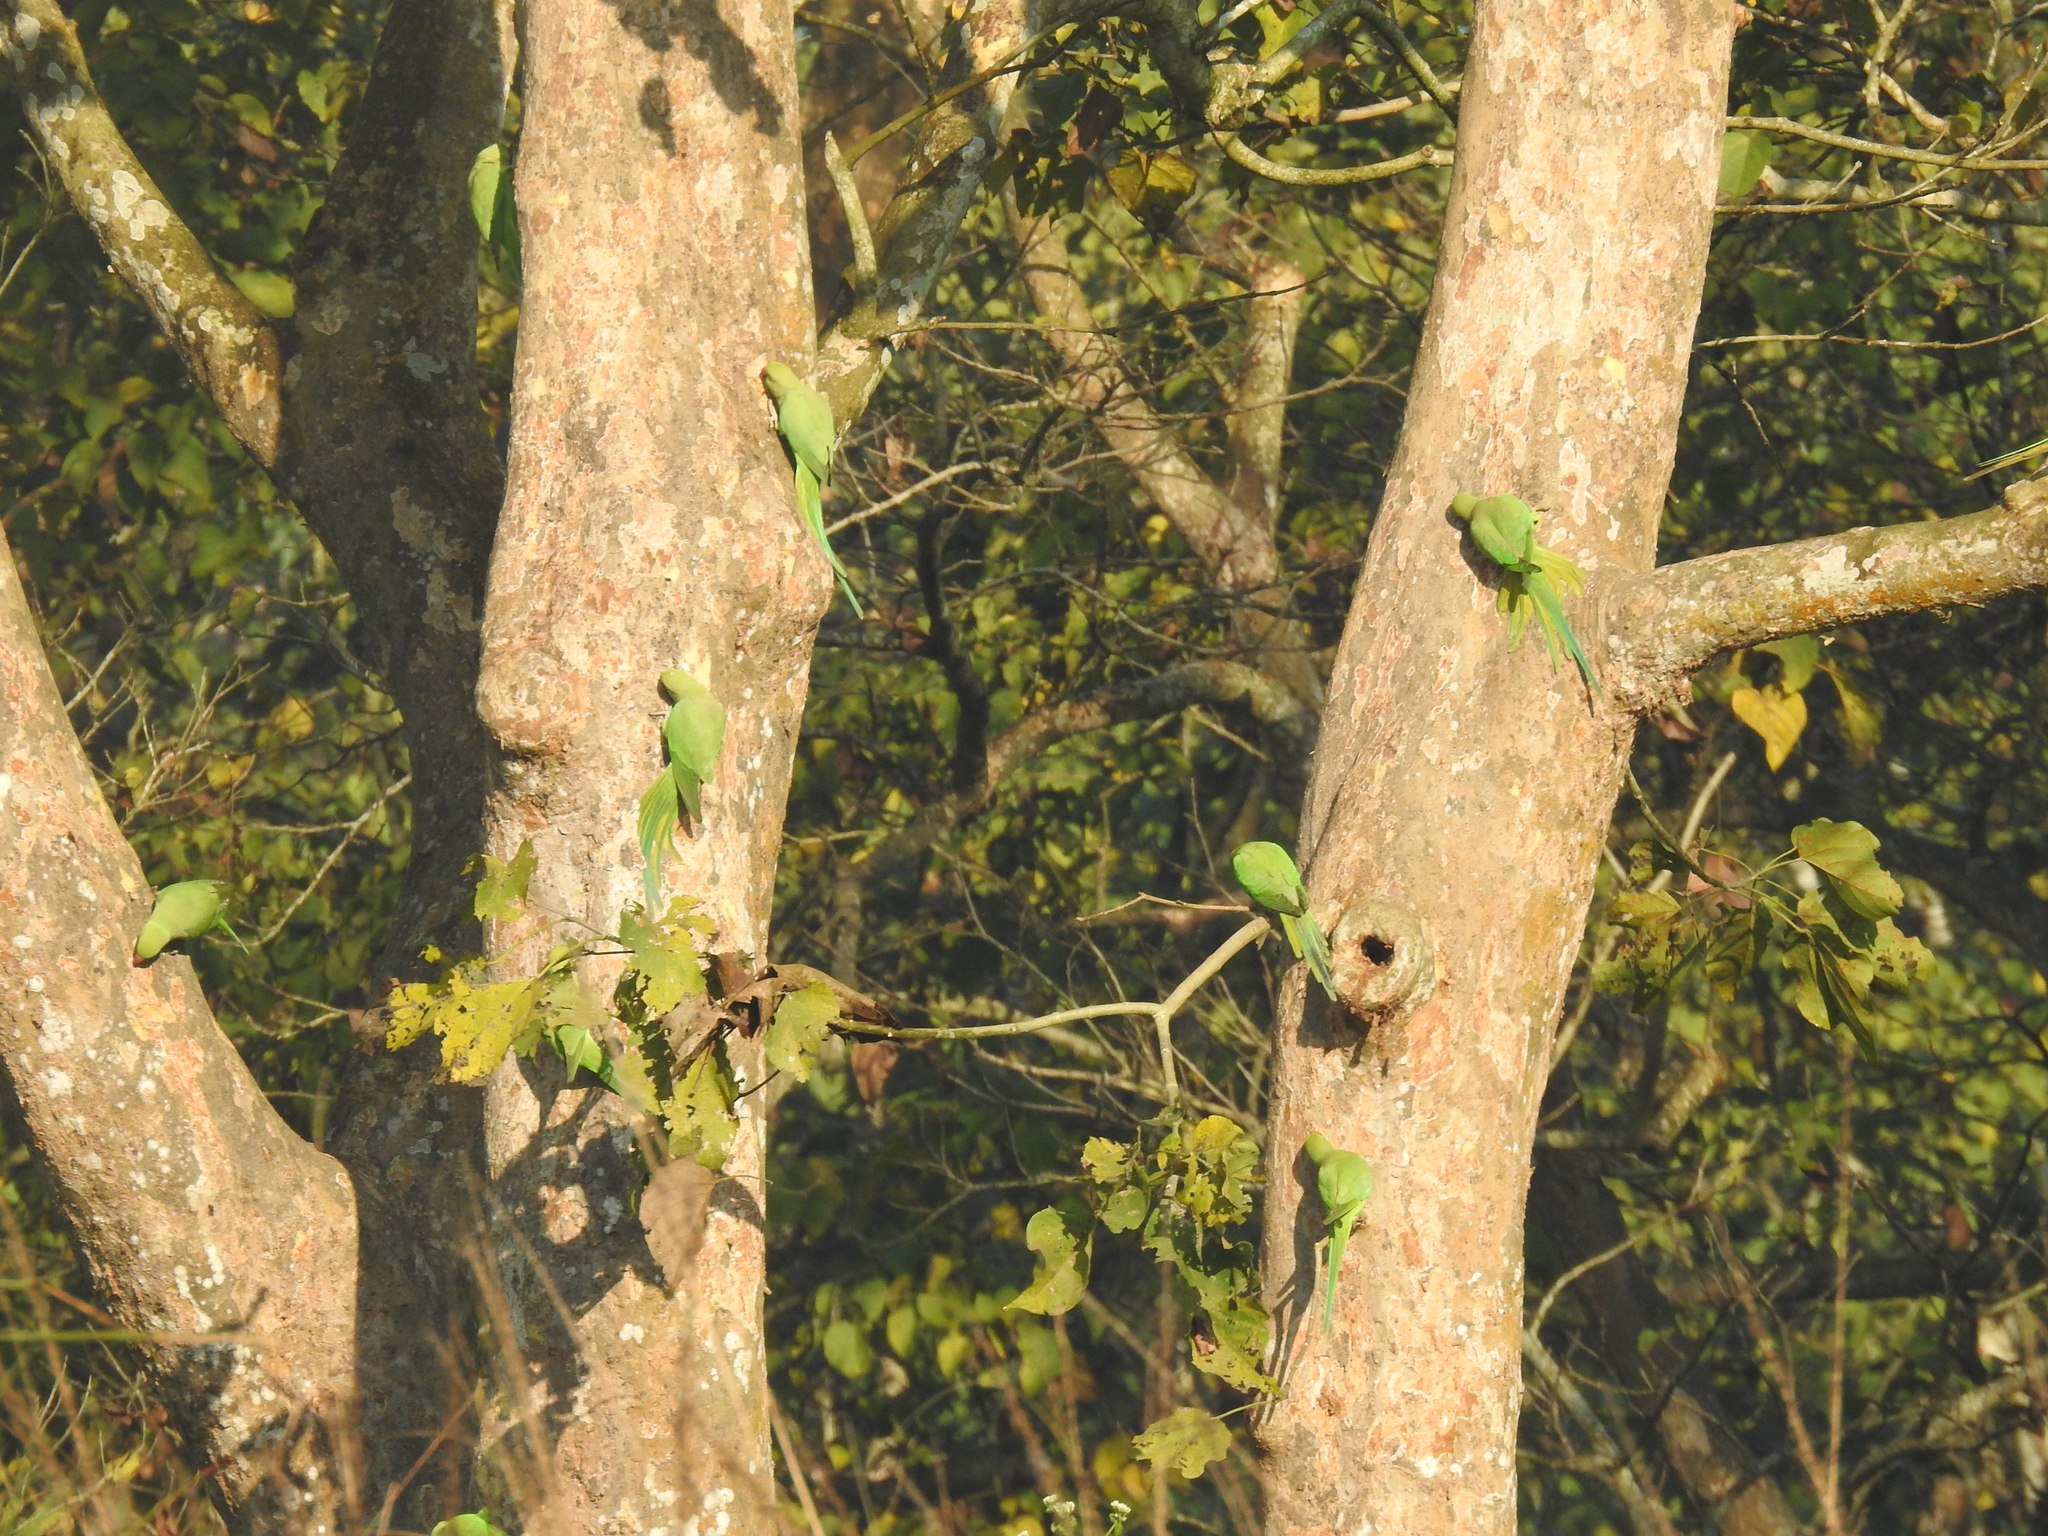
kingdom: Animalia
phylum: Chordata
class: Aves
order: Psittaciformes
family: Psittacidae
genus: Psittacula
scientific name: Psittacula krameri
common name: Rose-ringed parakeet
